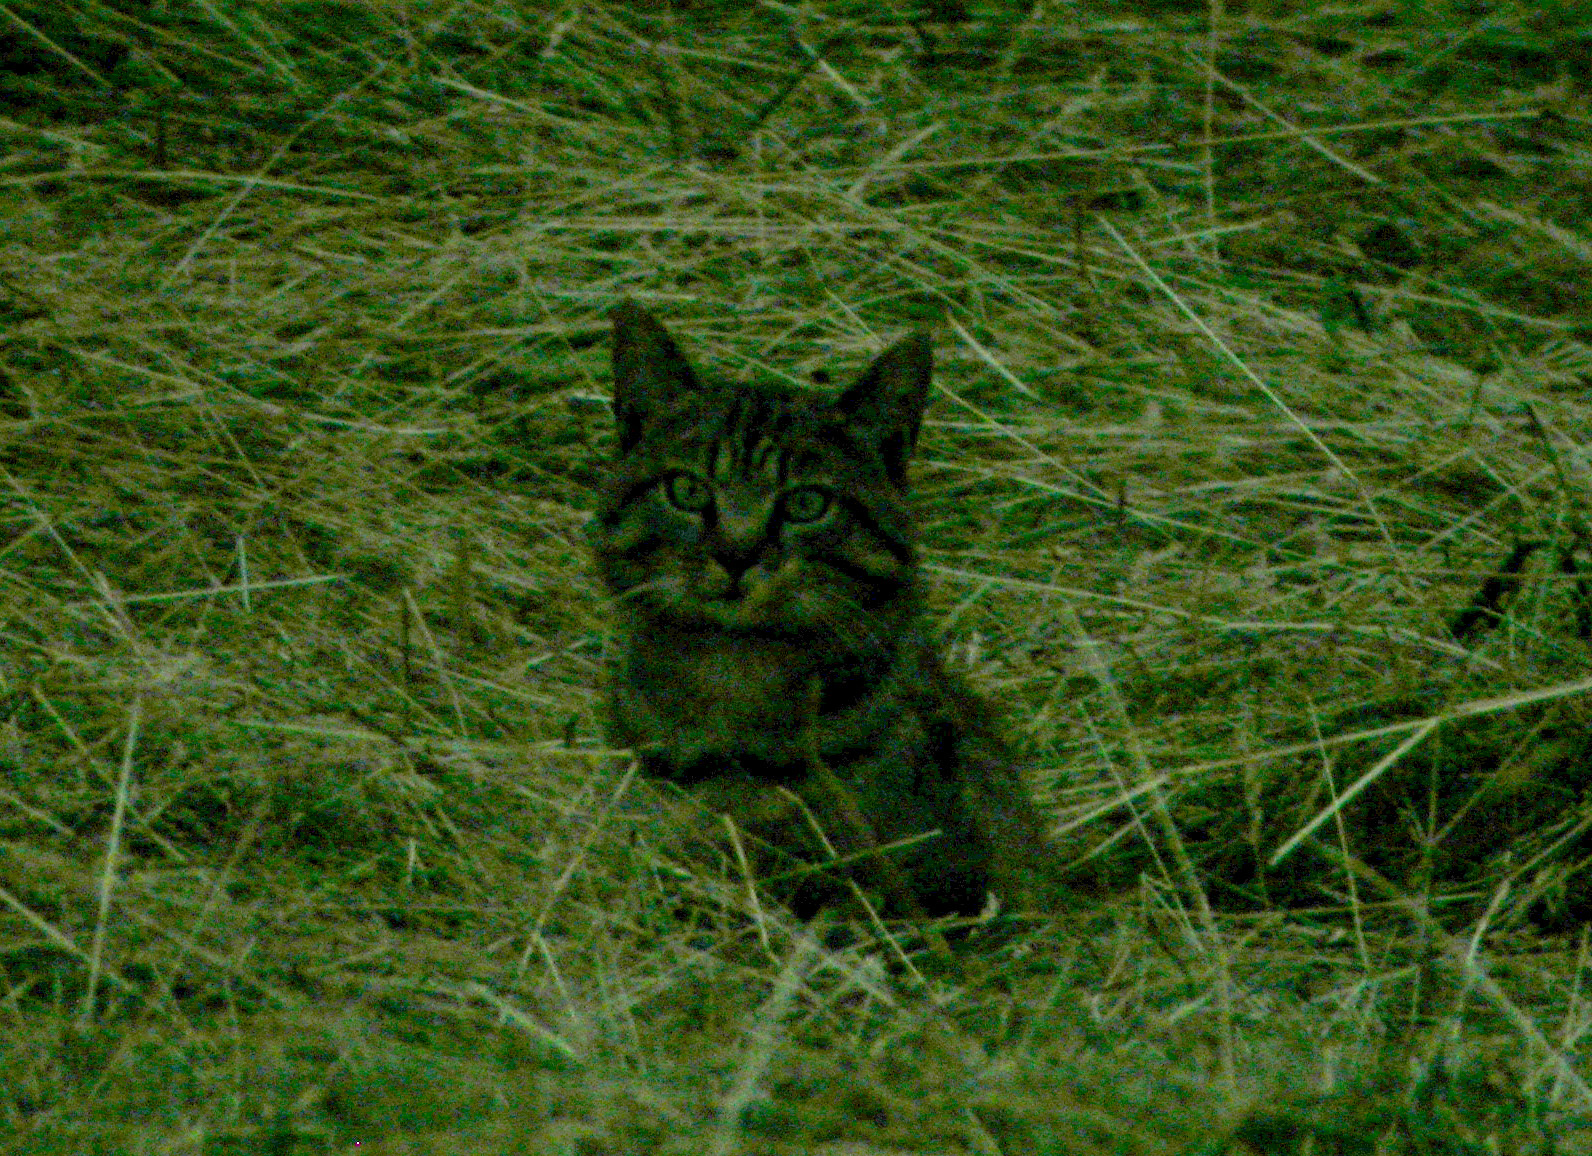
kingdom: Animalia
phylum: Chordata
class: Mammalia
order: Carnivora
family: Felidae
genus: Felis
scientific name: Felis catus
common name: Domestic cat
